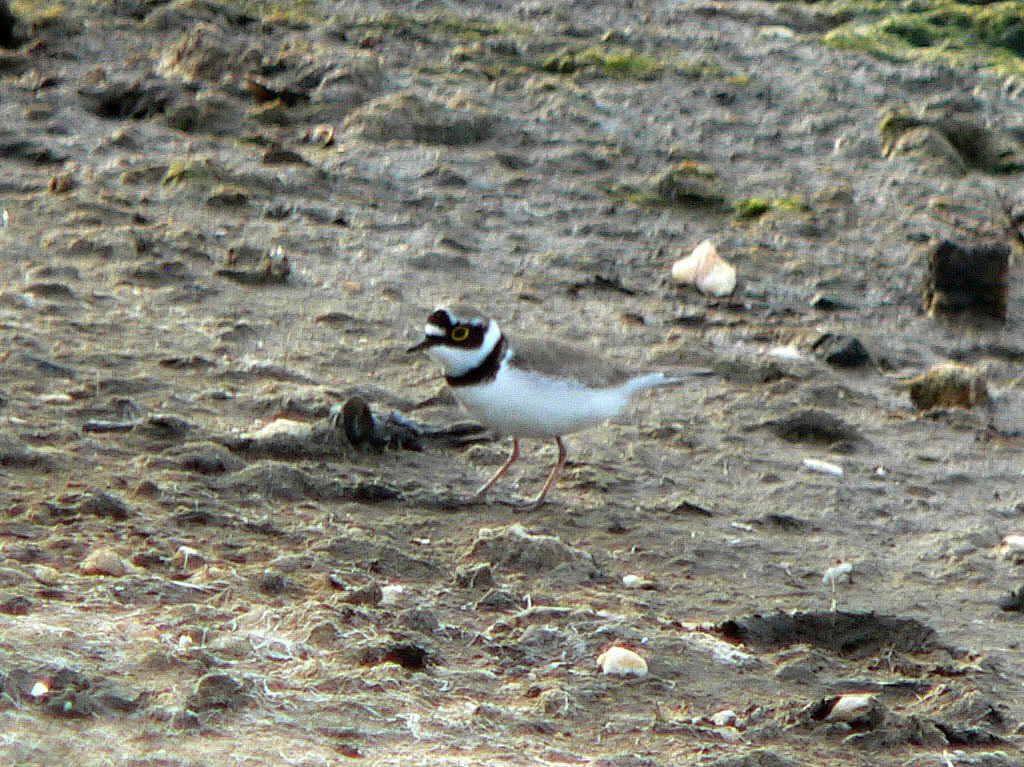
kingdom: Animalia
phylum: Chordata
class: Aves
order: Charadriiformes
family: Charadriidae
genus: Charadrius
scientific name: Charadrius dubius
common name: Little ringed plover
